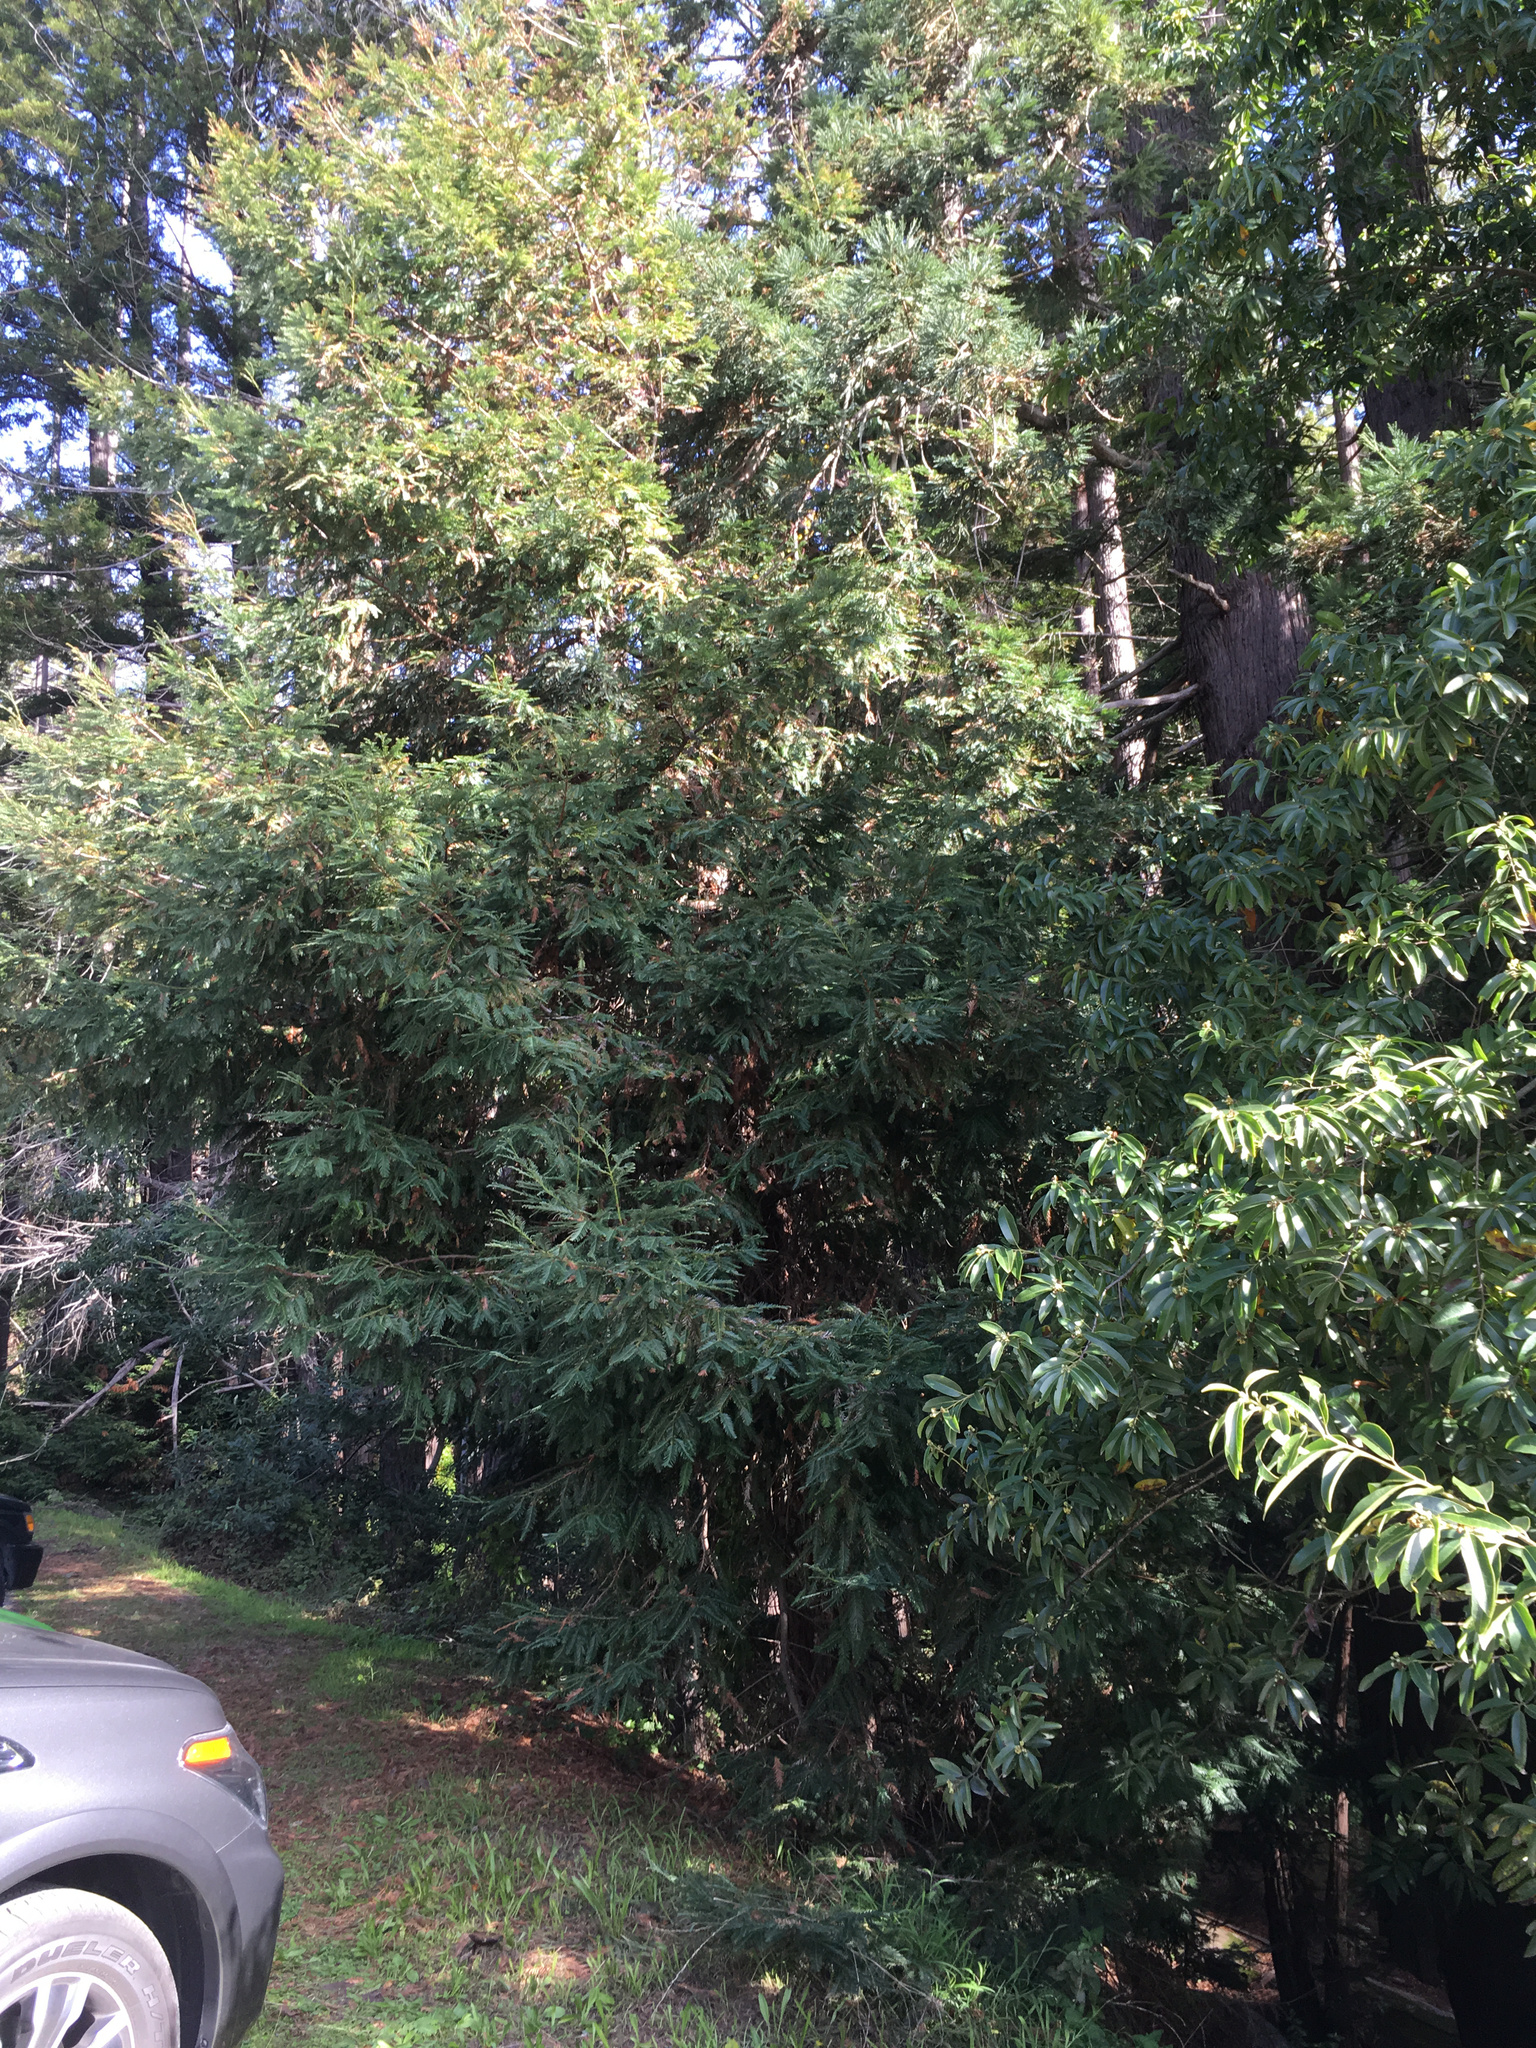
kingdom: Plantae
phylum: Tracheophyta
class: Pinopsida
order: Pinales
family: Cupressaceae
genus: Sequoia
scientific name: Sequoia sempervirens
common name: Coast redwood
